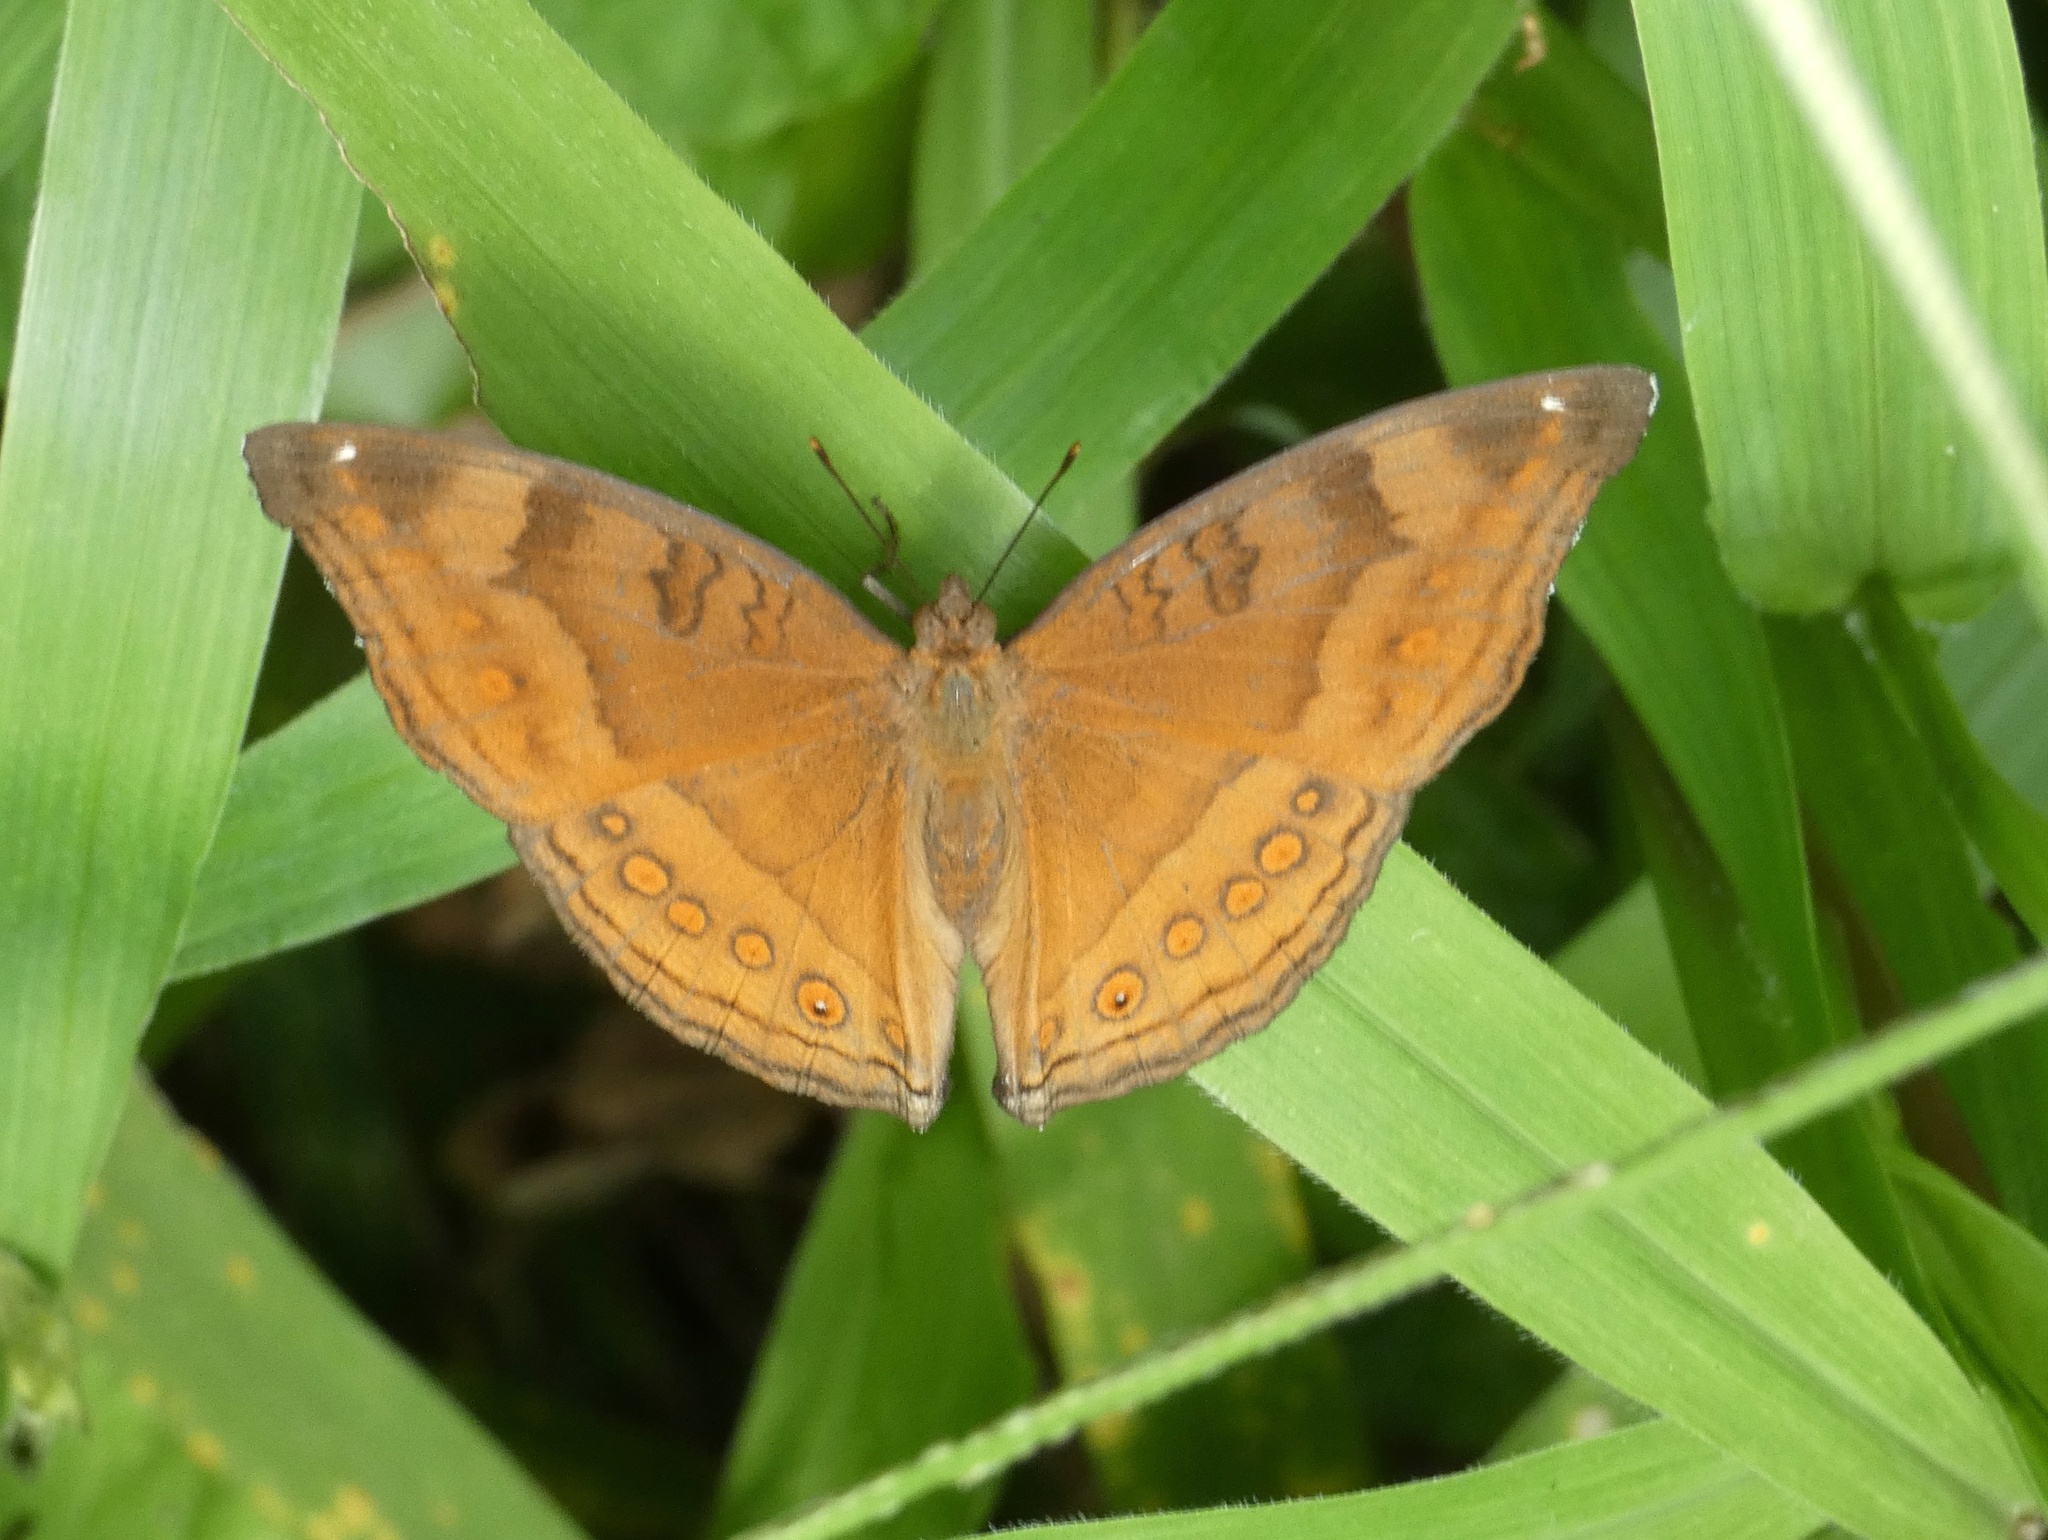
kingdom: Animalia
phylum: Arthropoda
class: Insecta
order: Lepidoptera
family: Nymphalidae
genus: Junonia
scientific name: Junonia hedonia
